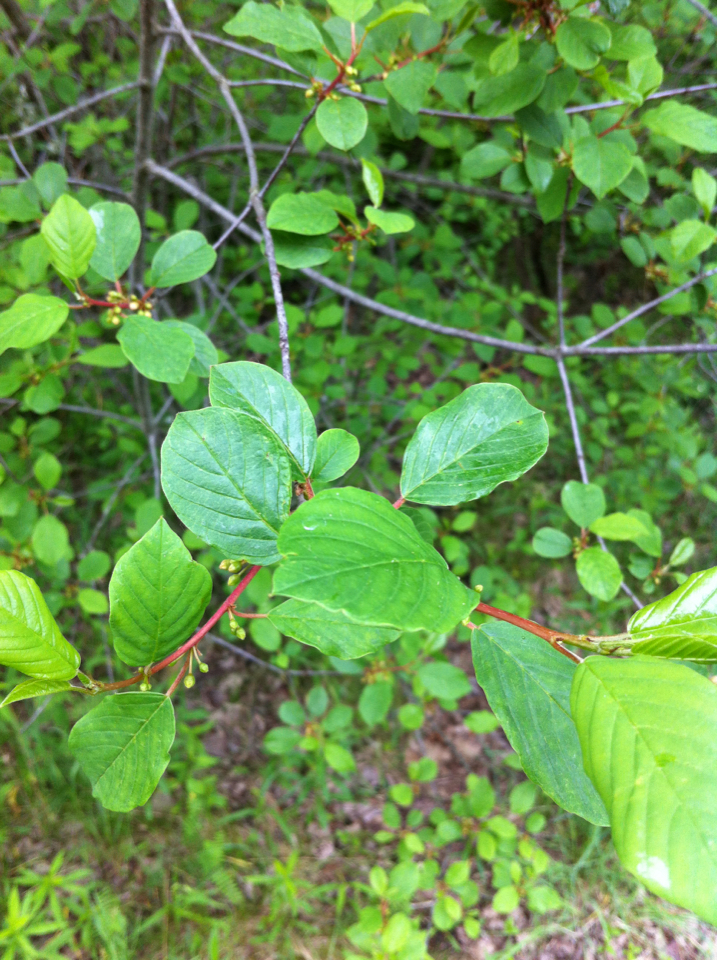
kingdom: Plantae
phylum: Tracheophyta
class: Magnoliopsida
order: Rosales
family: Rhamnaceae
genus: Frangula
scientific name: Frangula alnus
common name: Alder buckthorn
